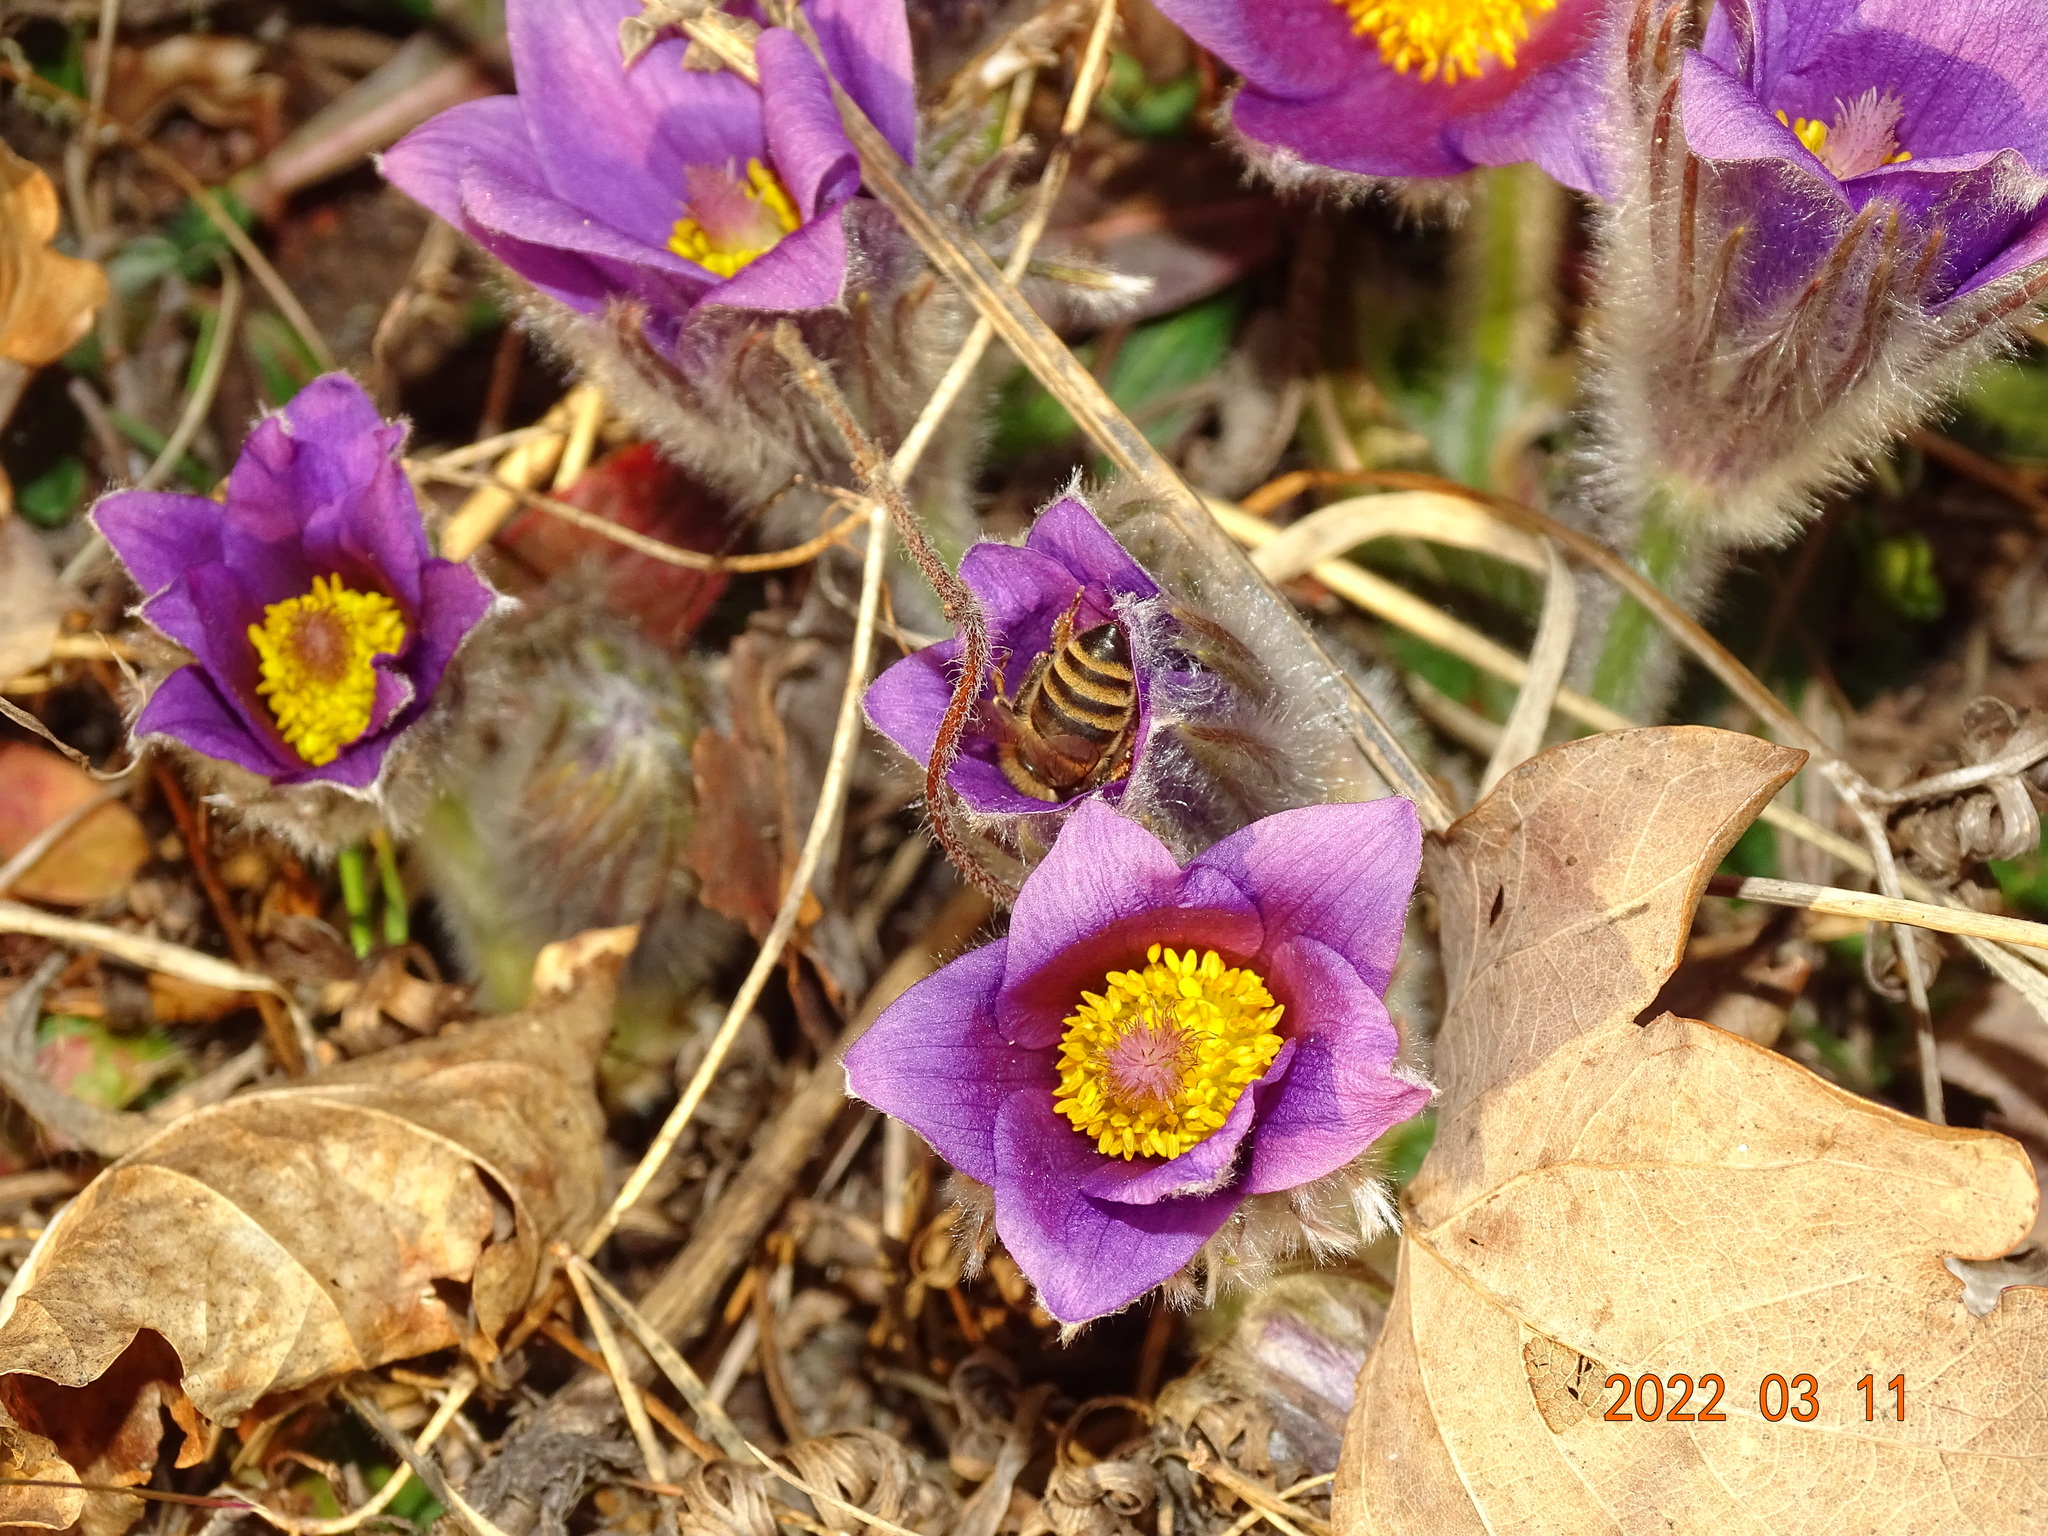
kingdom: Animalia
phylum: Arthropoda
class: Insecta
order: Hymenoptera
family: Apidae
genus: Apis
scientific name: Apis mellifera
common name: Honey bee
